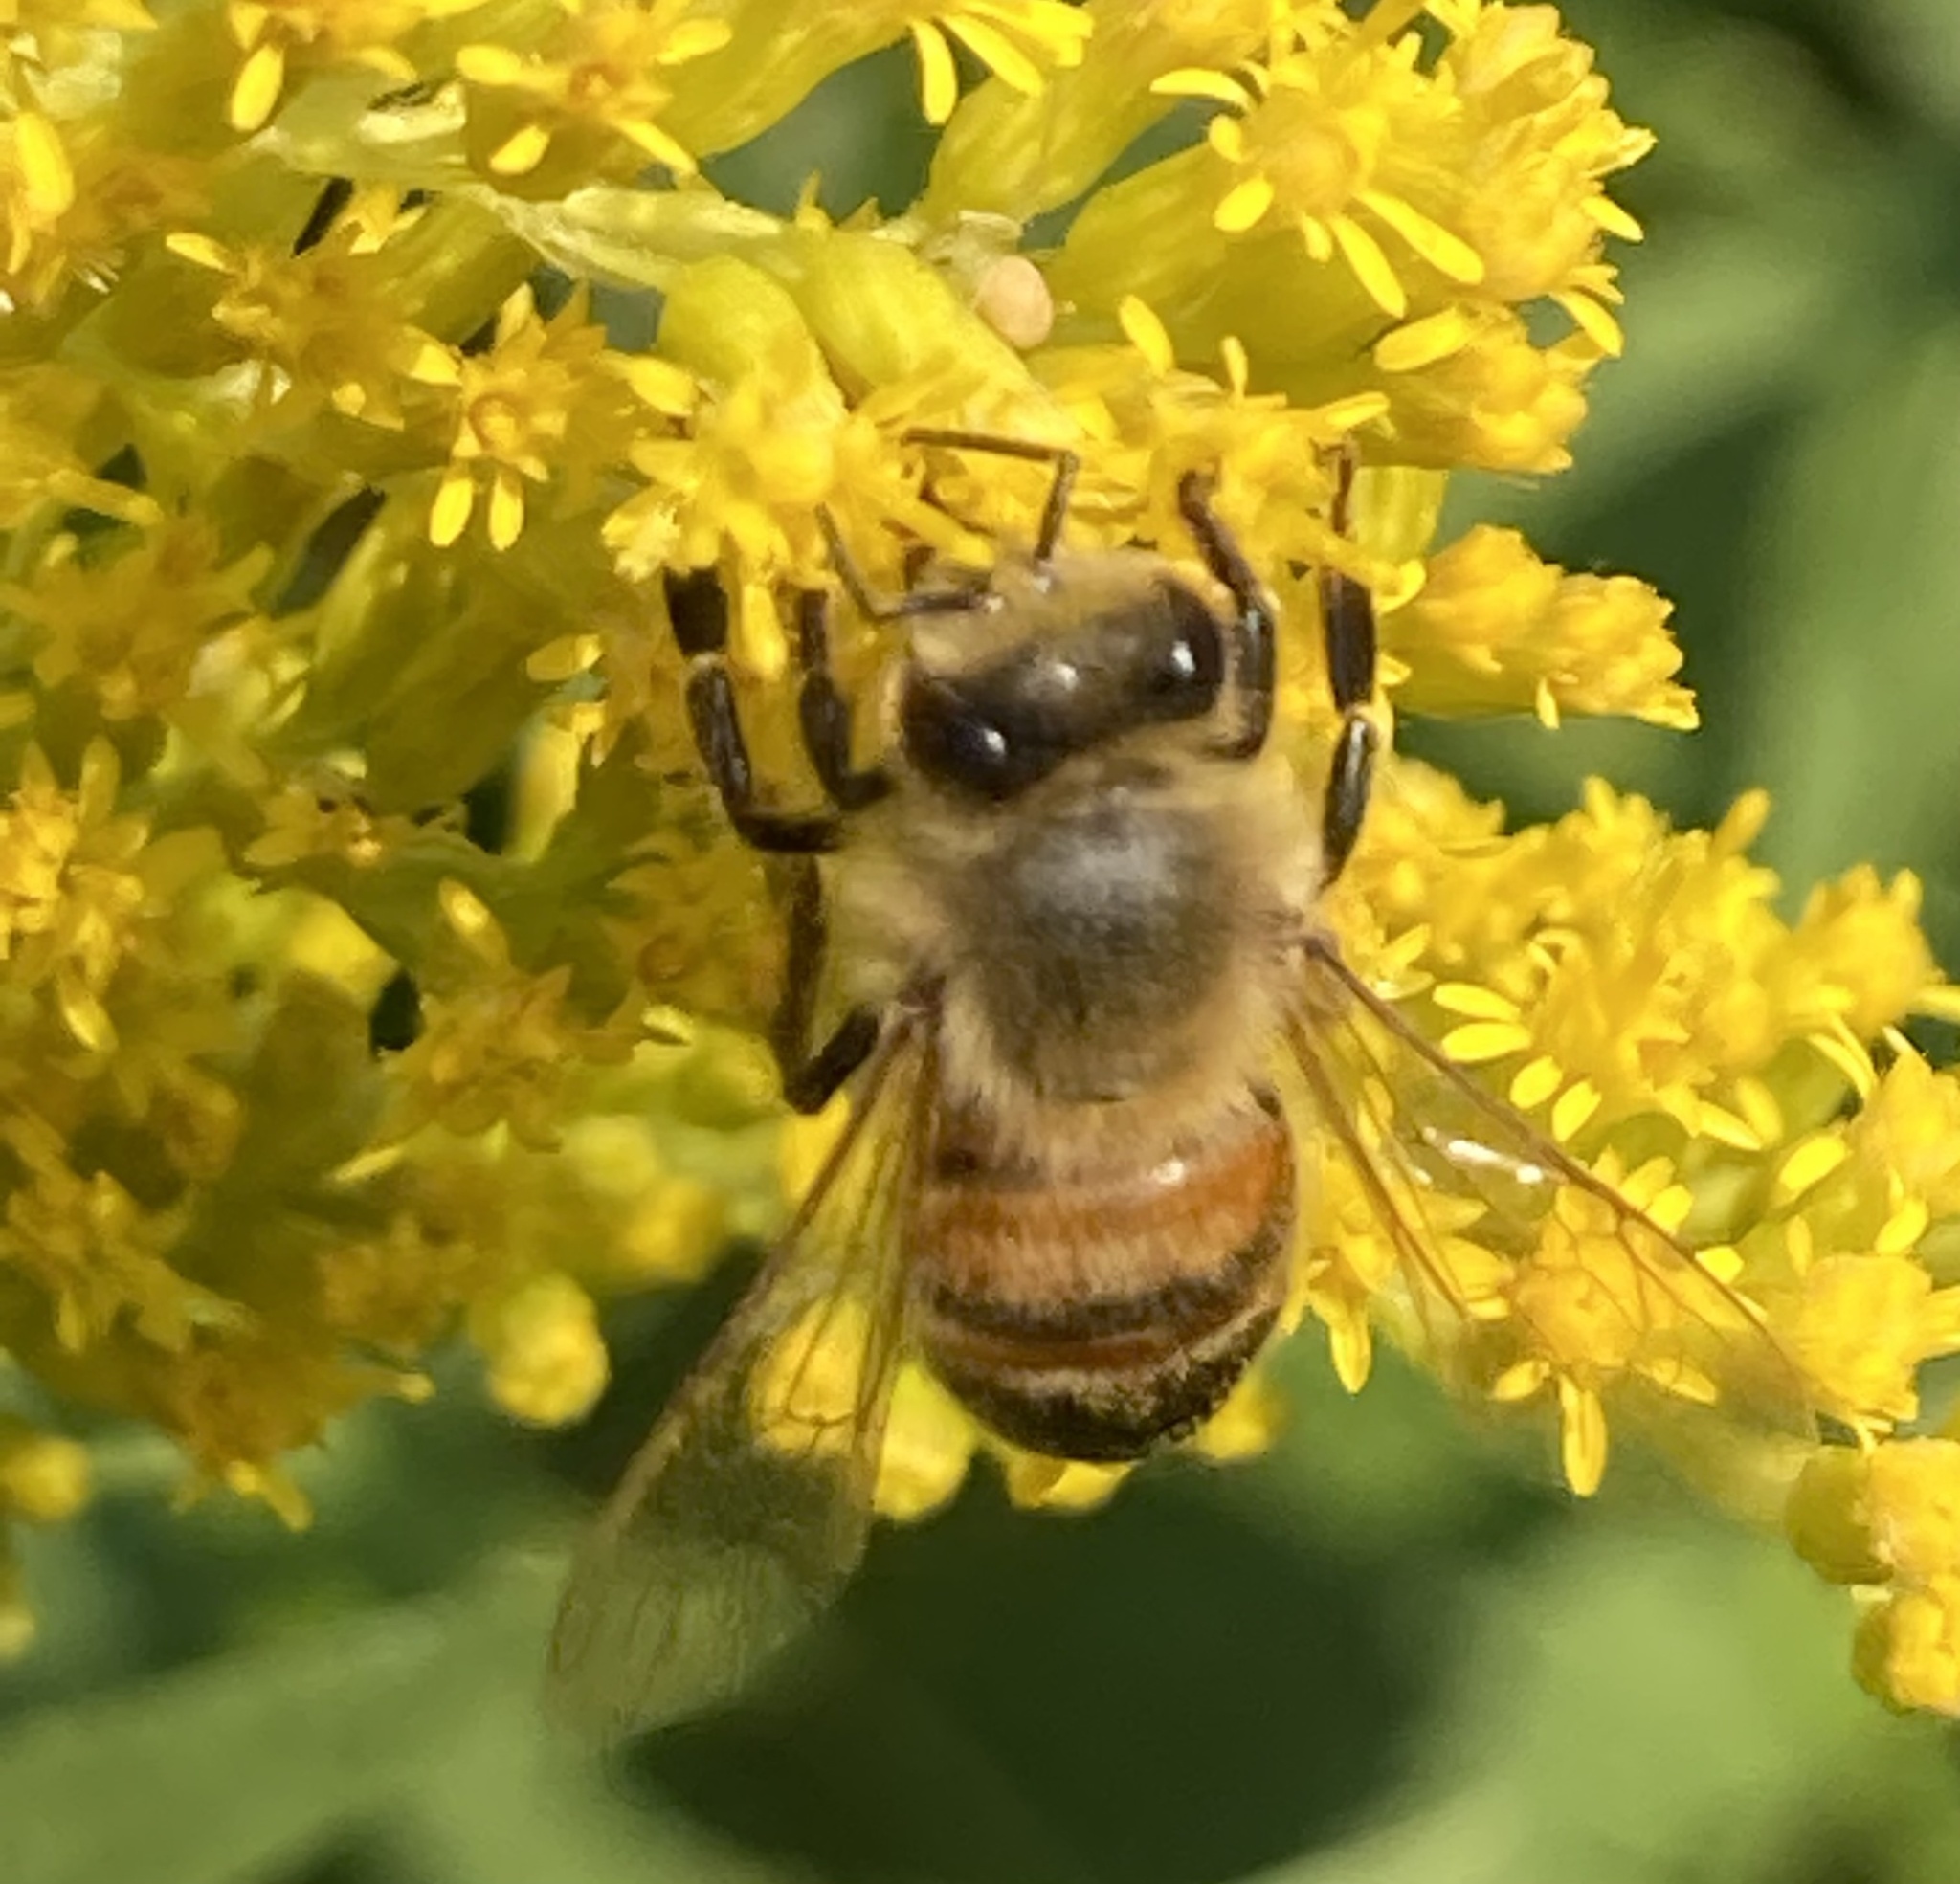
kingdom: Animalia
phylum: Arthropoda
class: Insecta
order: Hymenoptera
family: Apidae
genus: Apis
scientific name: Apis mellifera
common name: Honey bee
